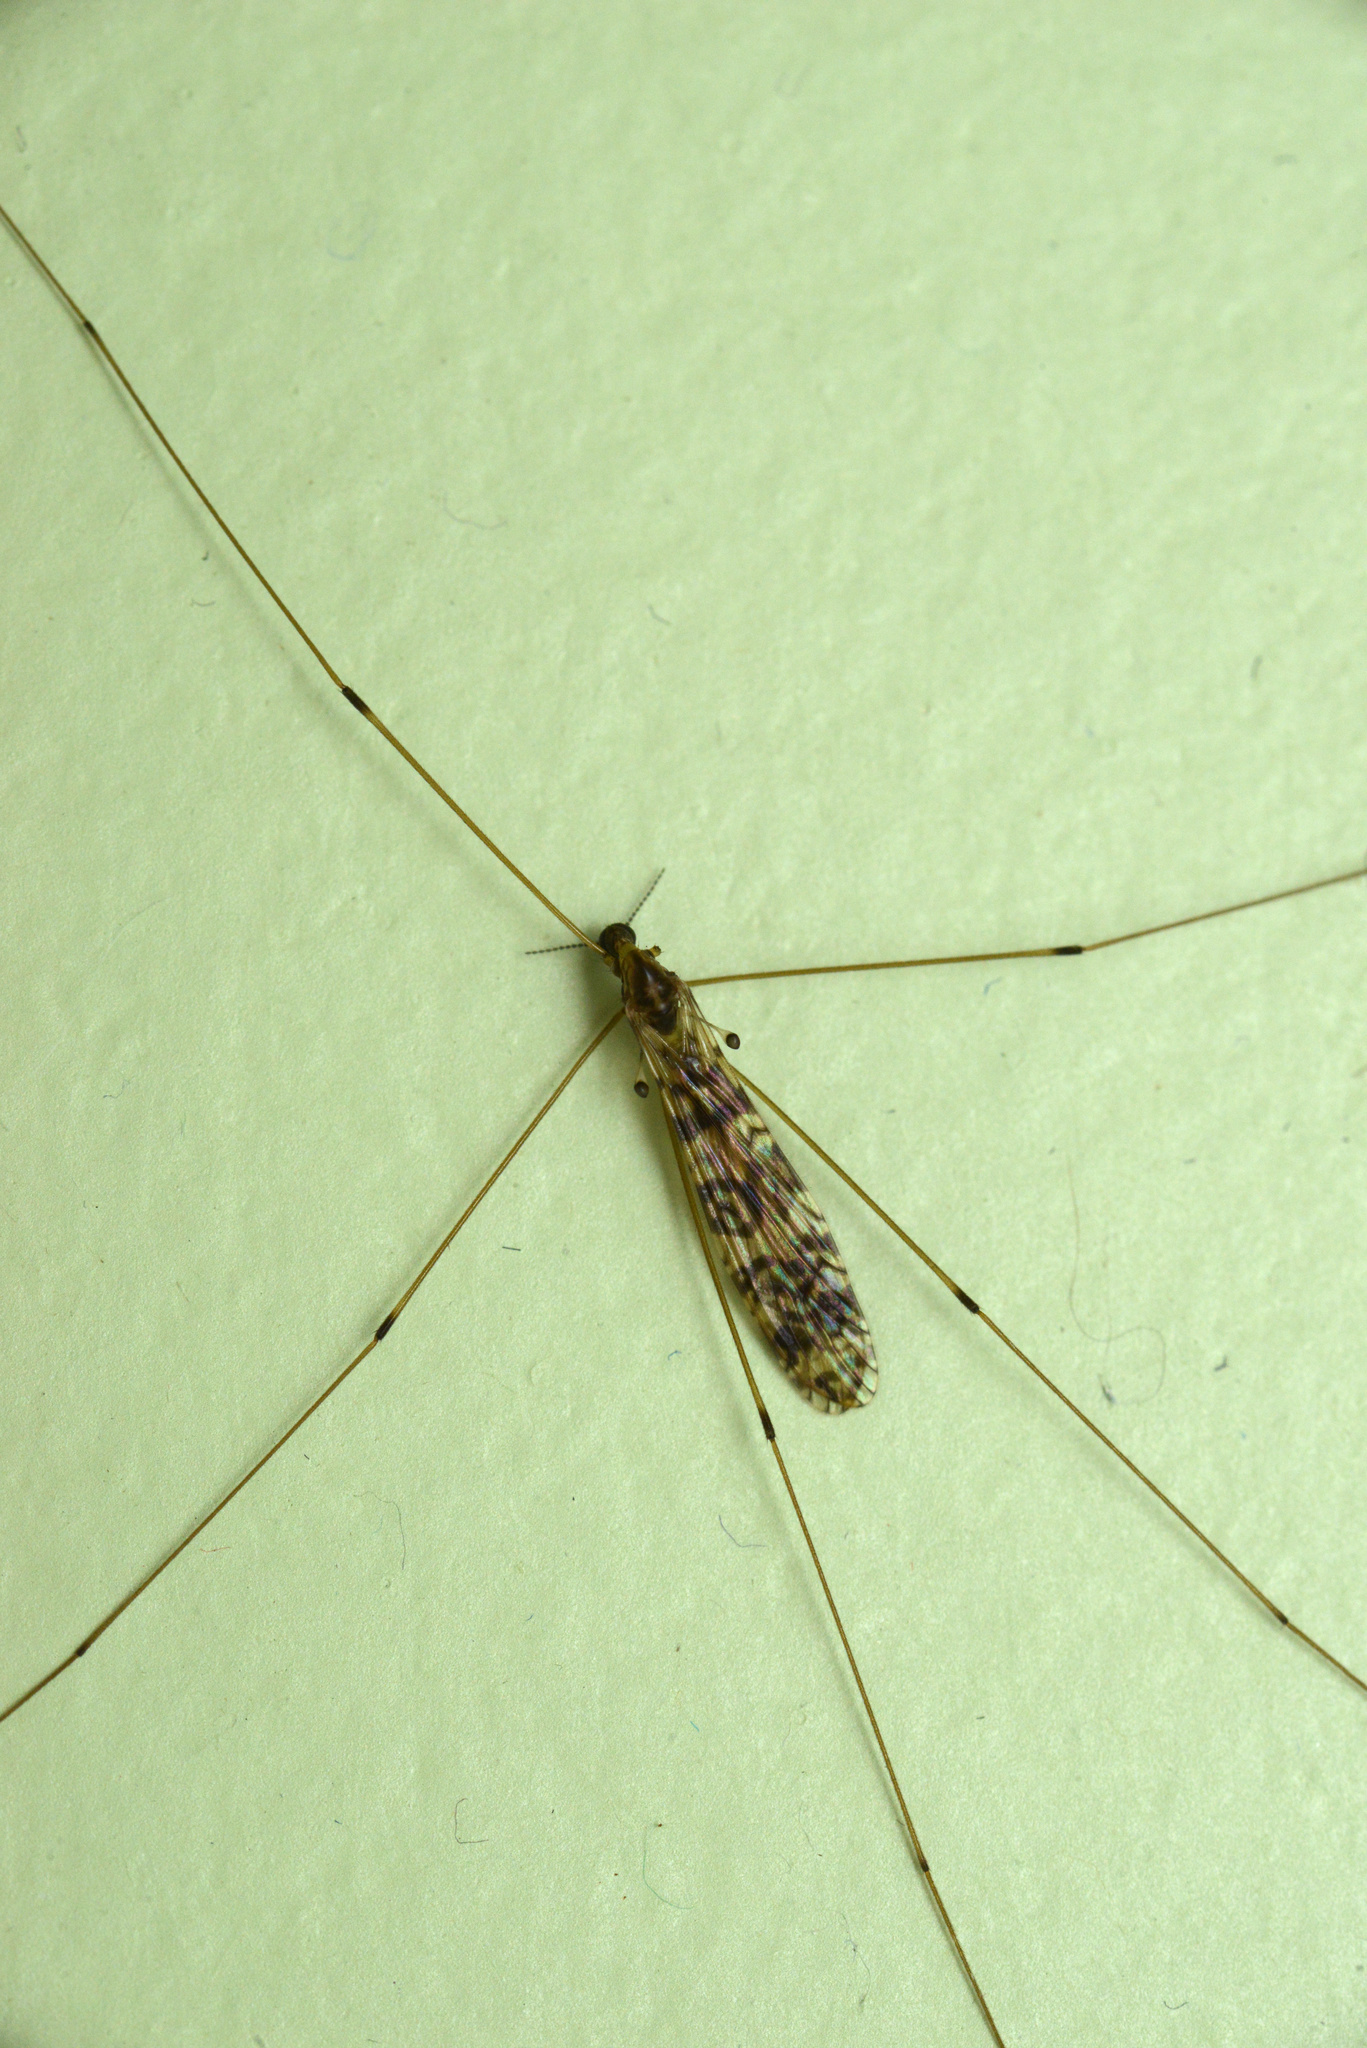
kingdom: Animalia
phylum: Arthropoda
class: Insecta
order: Diptera
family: Limoniidae
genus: Discobola
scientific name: Discobola gibberina
